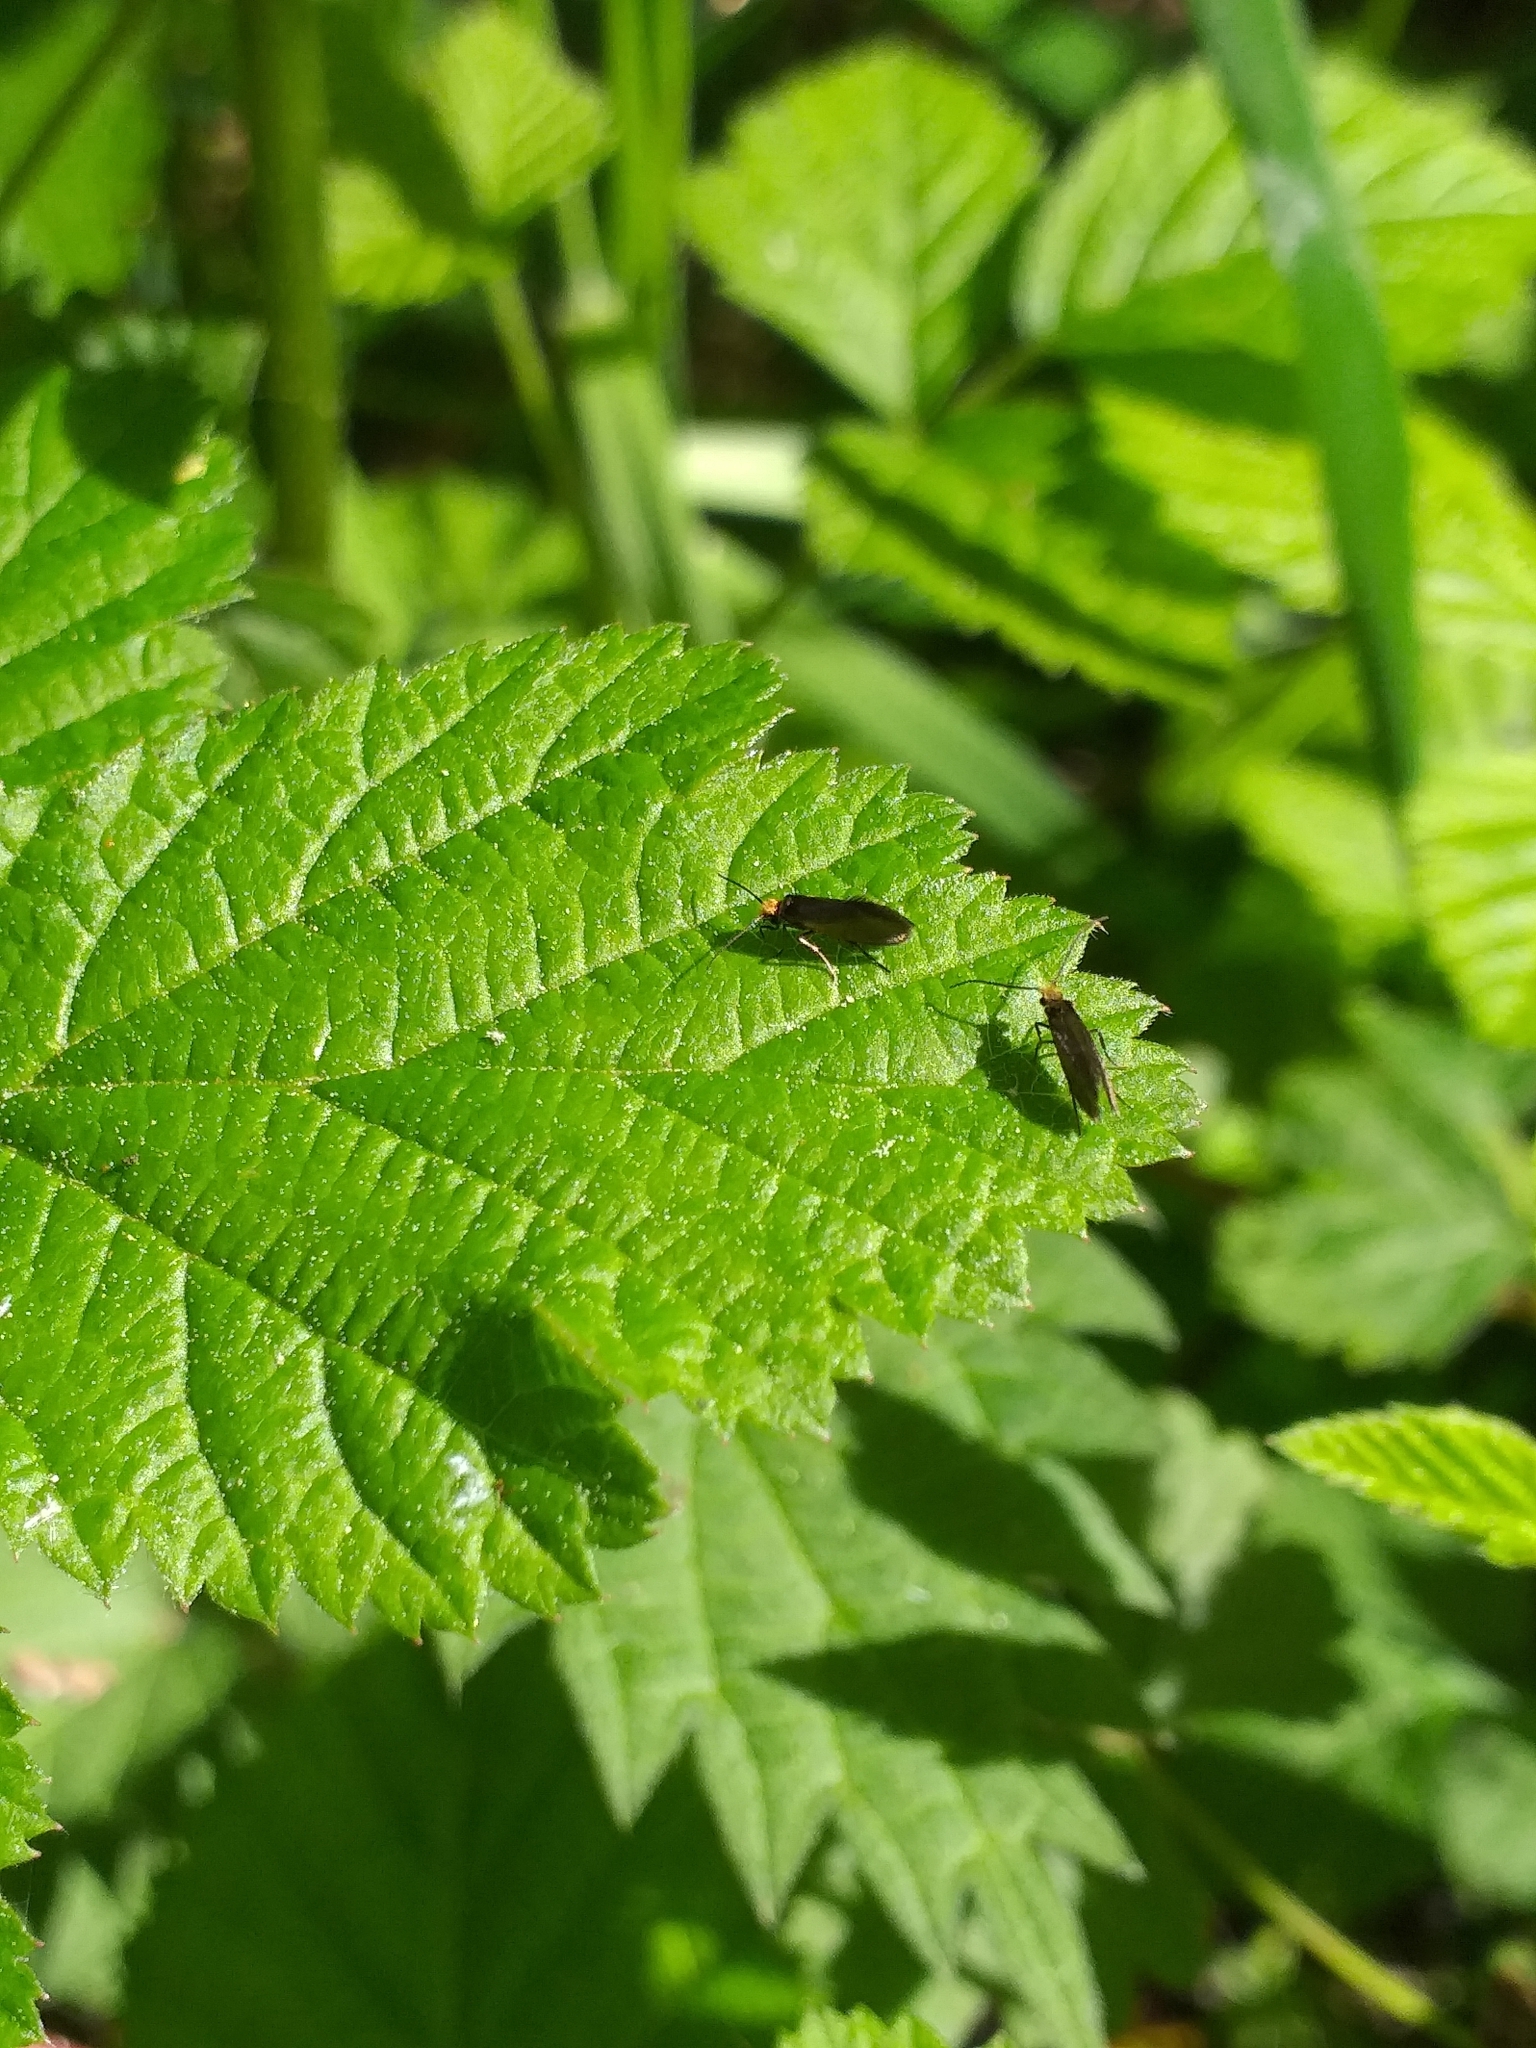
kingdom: Animalia
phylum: Arthropoda
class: Insecta
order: Lepidoptera
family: Micropterigidae
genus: Micropterix
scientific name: Micropterix calthella
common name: Plain gold
